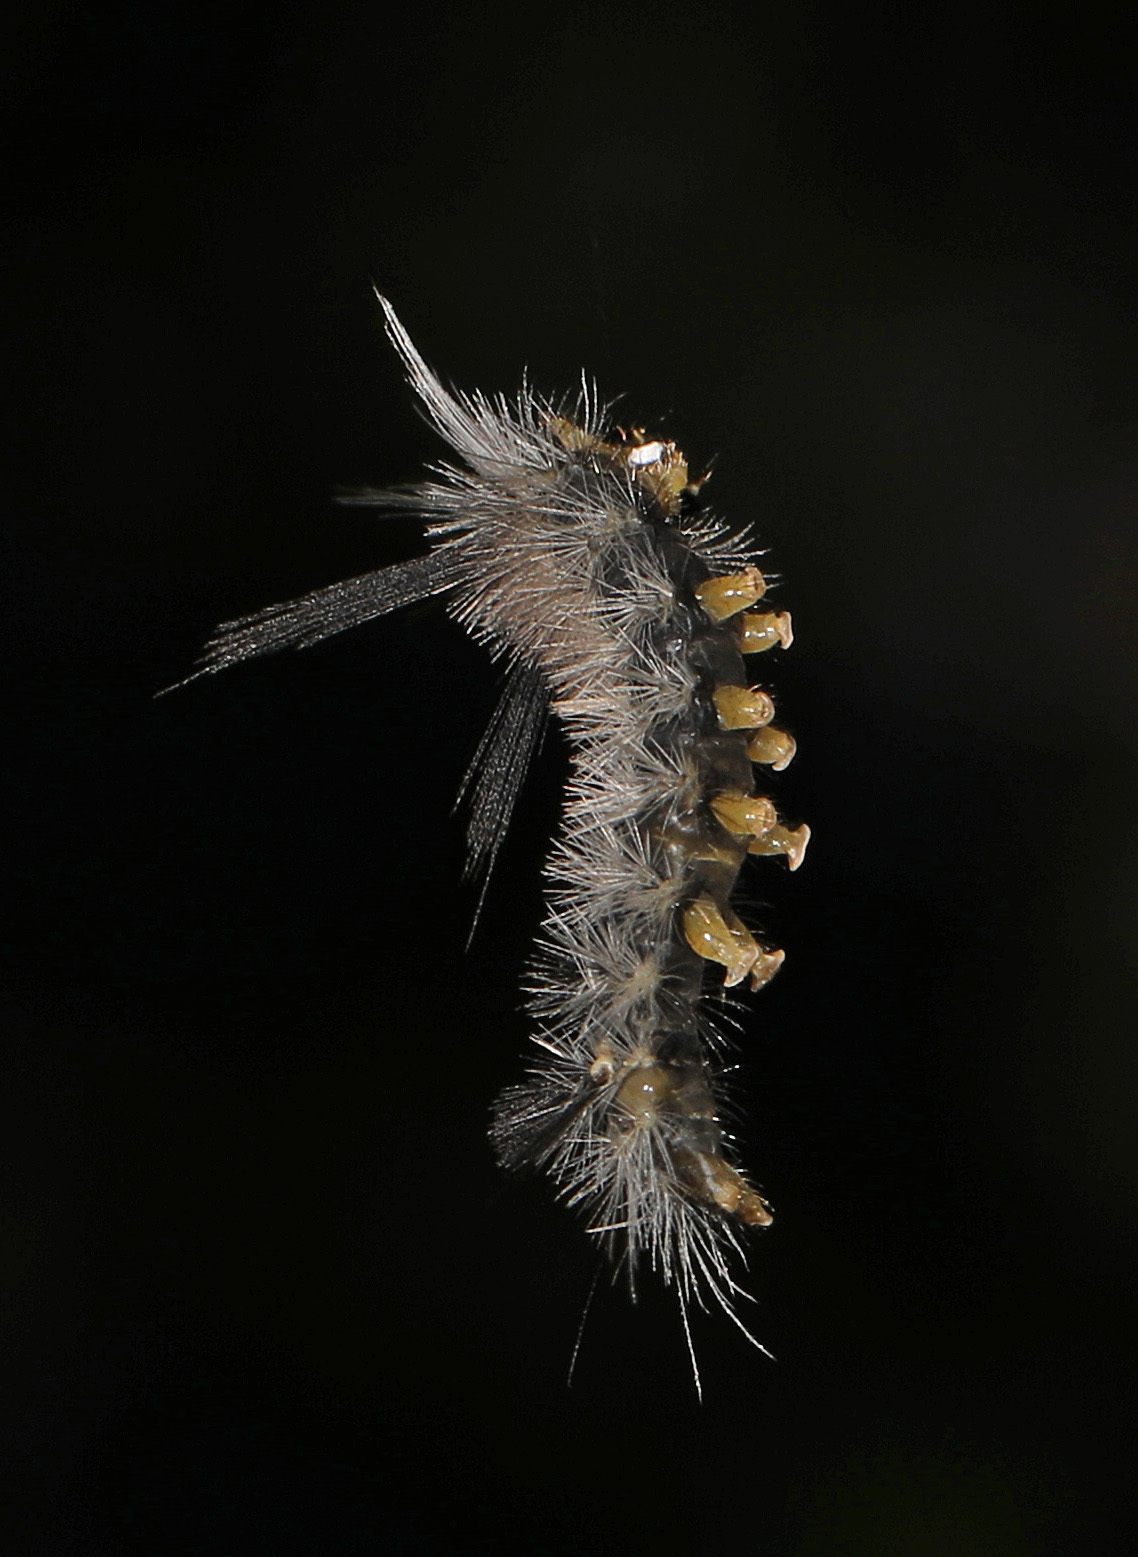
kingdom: Animalia
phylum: Arthropoda
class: Insecta
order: Lepidoptera
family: Erebidae
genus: Halysidota
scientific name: Halysidota tessellaris
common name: Banded tussock moth
